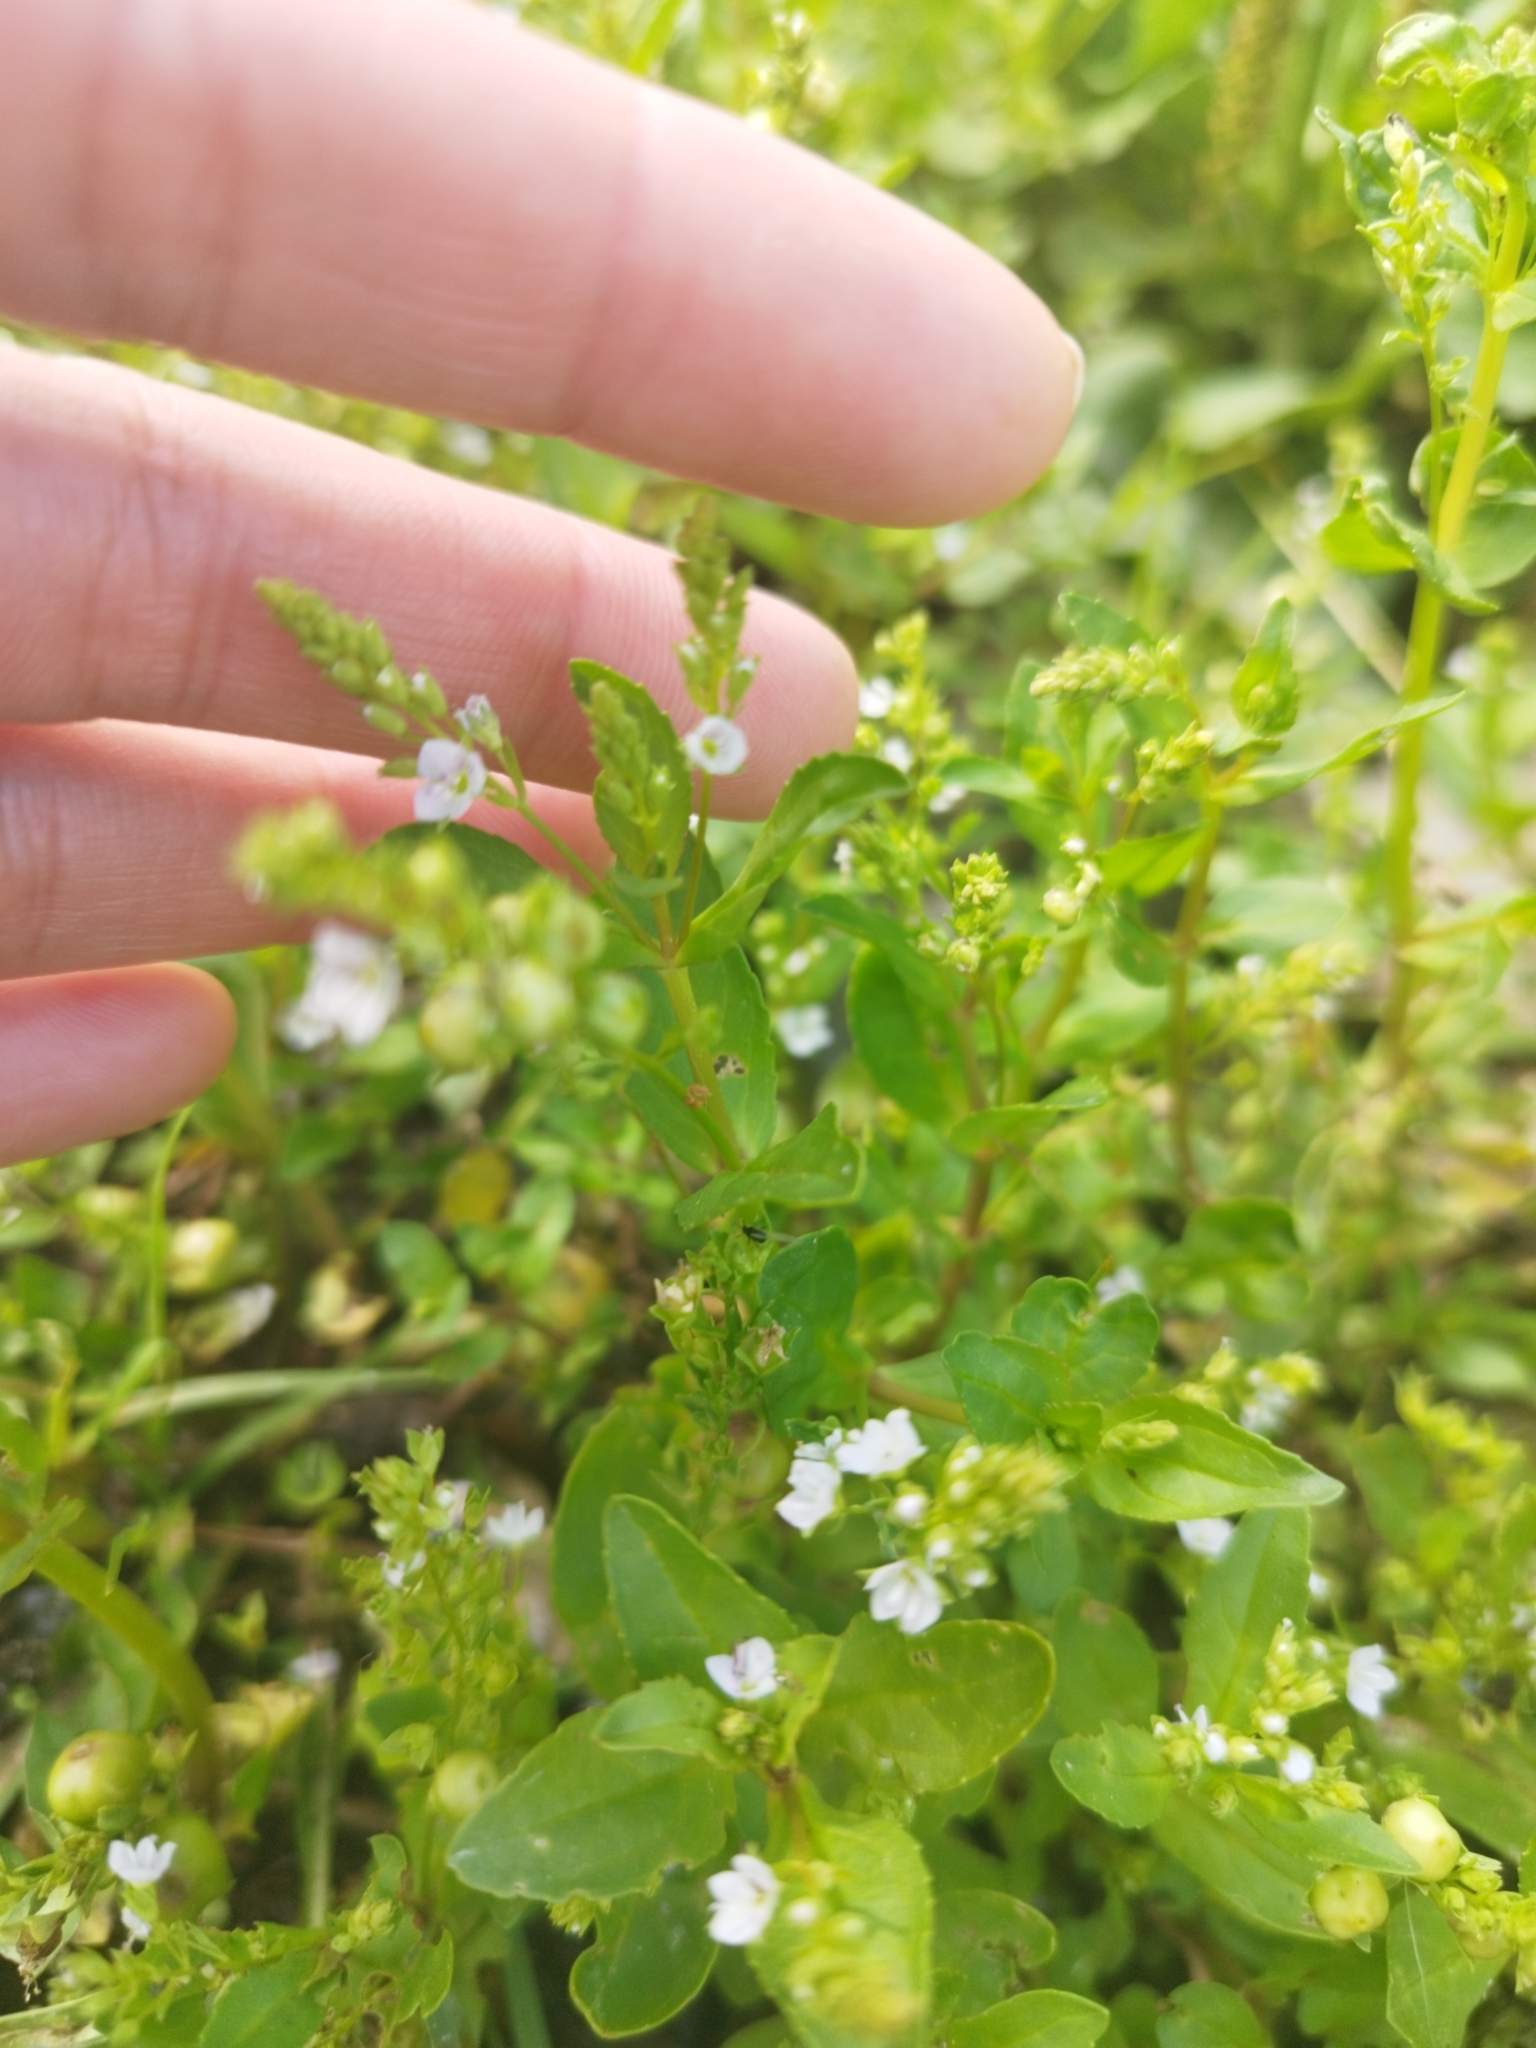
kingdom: Plantae
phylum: Tracheophyta
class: Magnoliopsida
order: Lamiales
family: Plantaginaceae
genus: Veronica
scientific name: Veronica anagallis-aquatica
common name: Water speedwell
